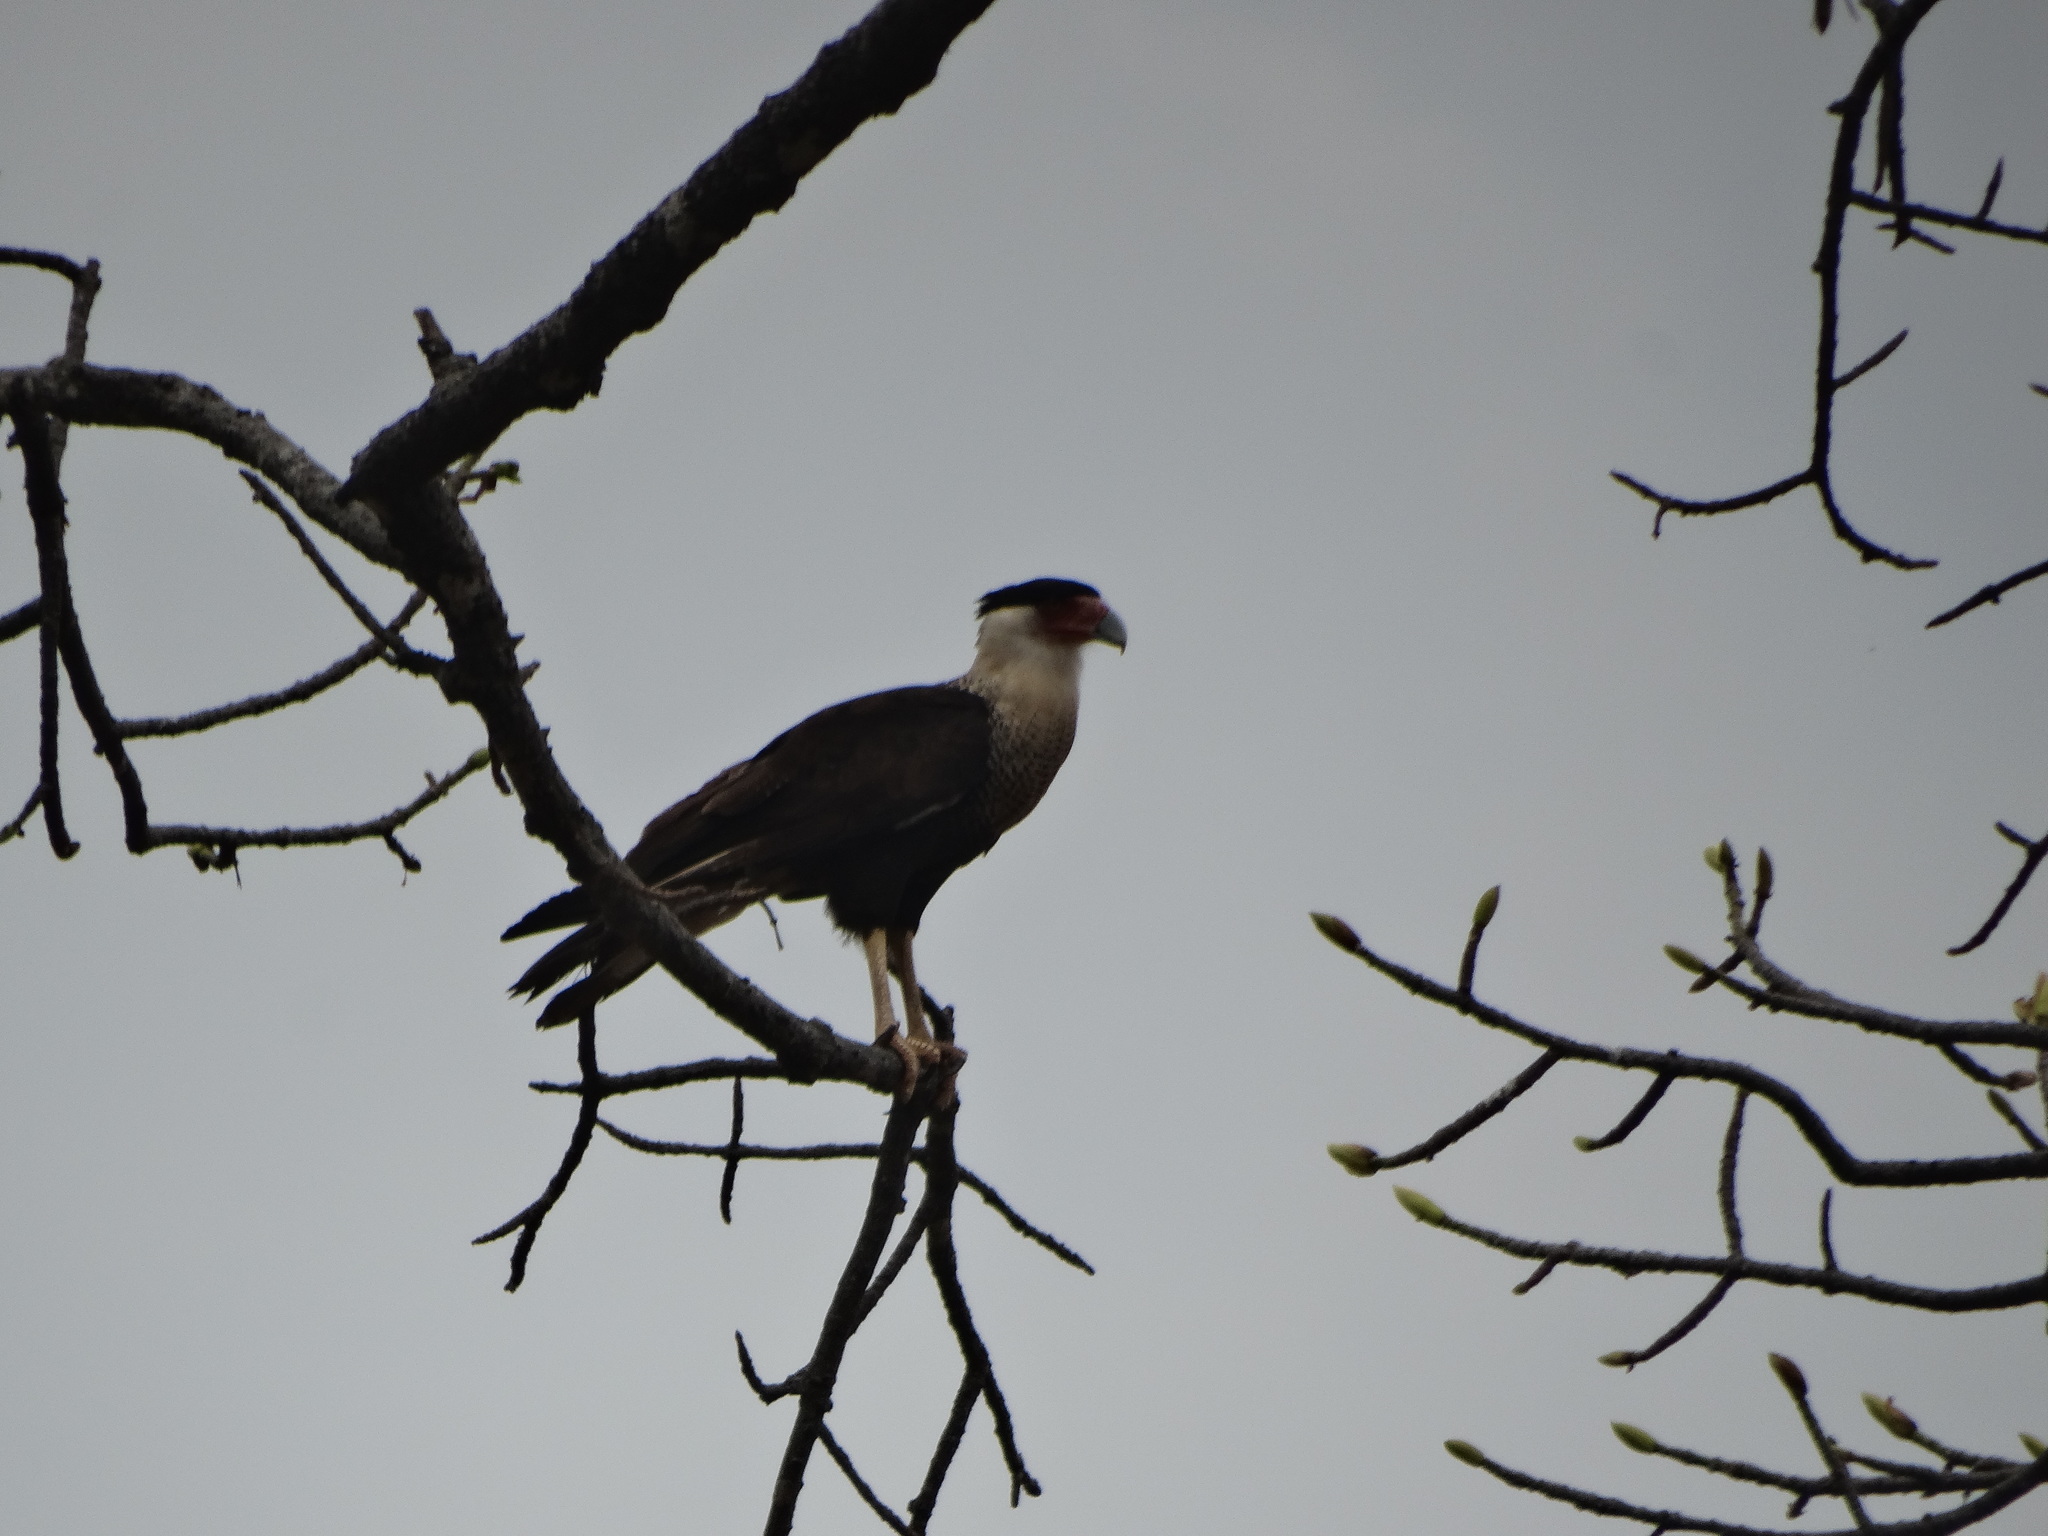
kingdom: Animalia
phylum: Chordata
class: Aves
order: Falconiformes
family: Falconidae
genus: Caracara
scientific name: Caracara plancus
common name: Southern caracara
